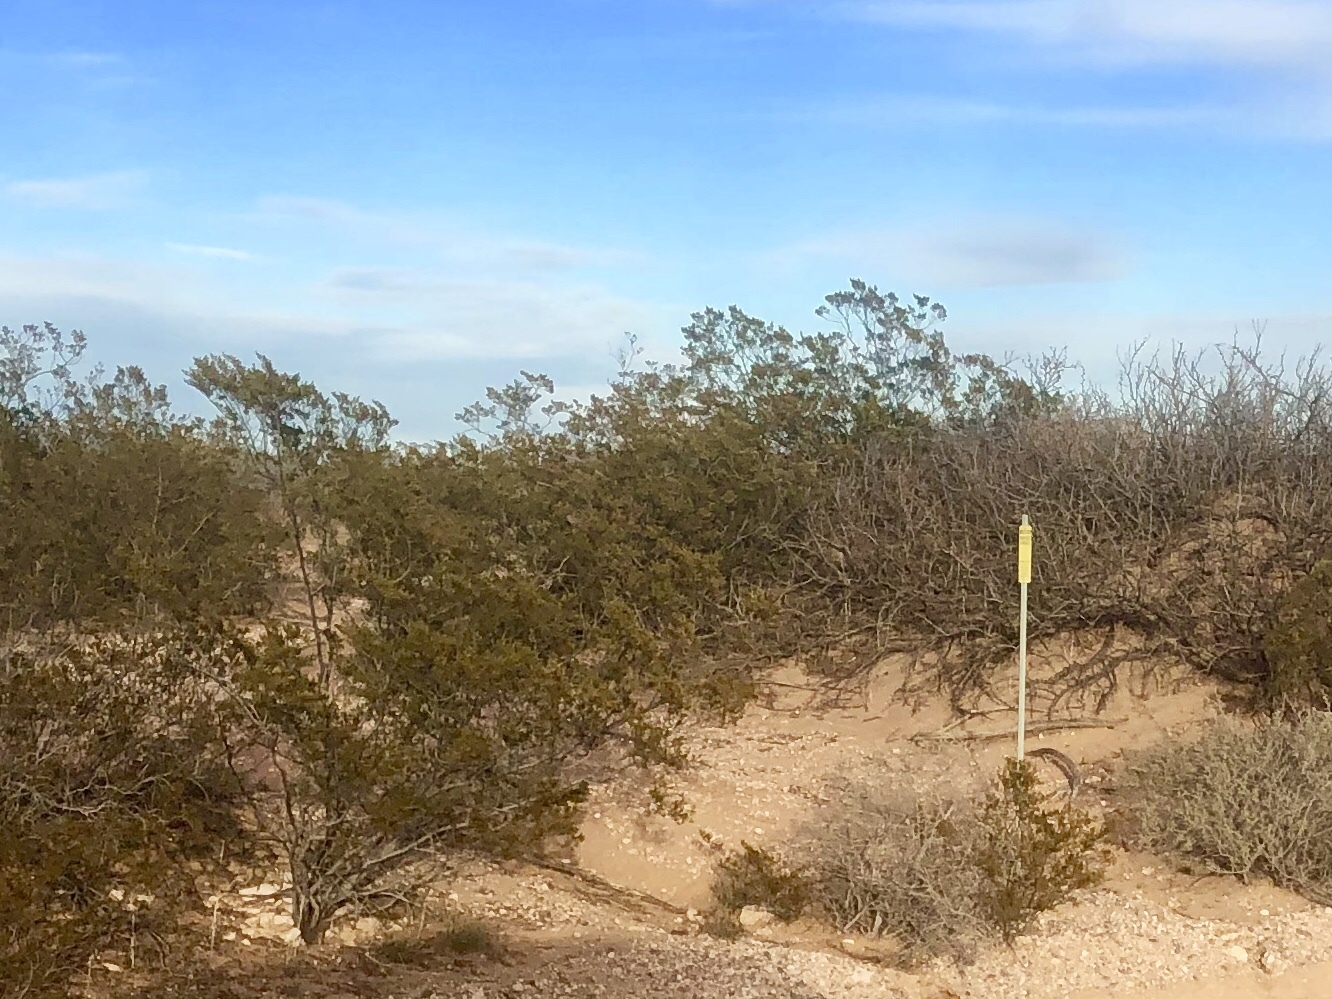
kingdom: Plantae
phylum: Tracheophyta
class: Magnoliopsida
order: Zygophyllales
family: Zygophyllaceae
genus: Larrea
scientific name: Larrea tridentata
